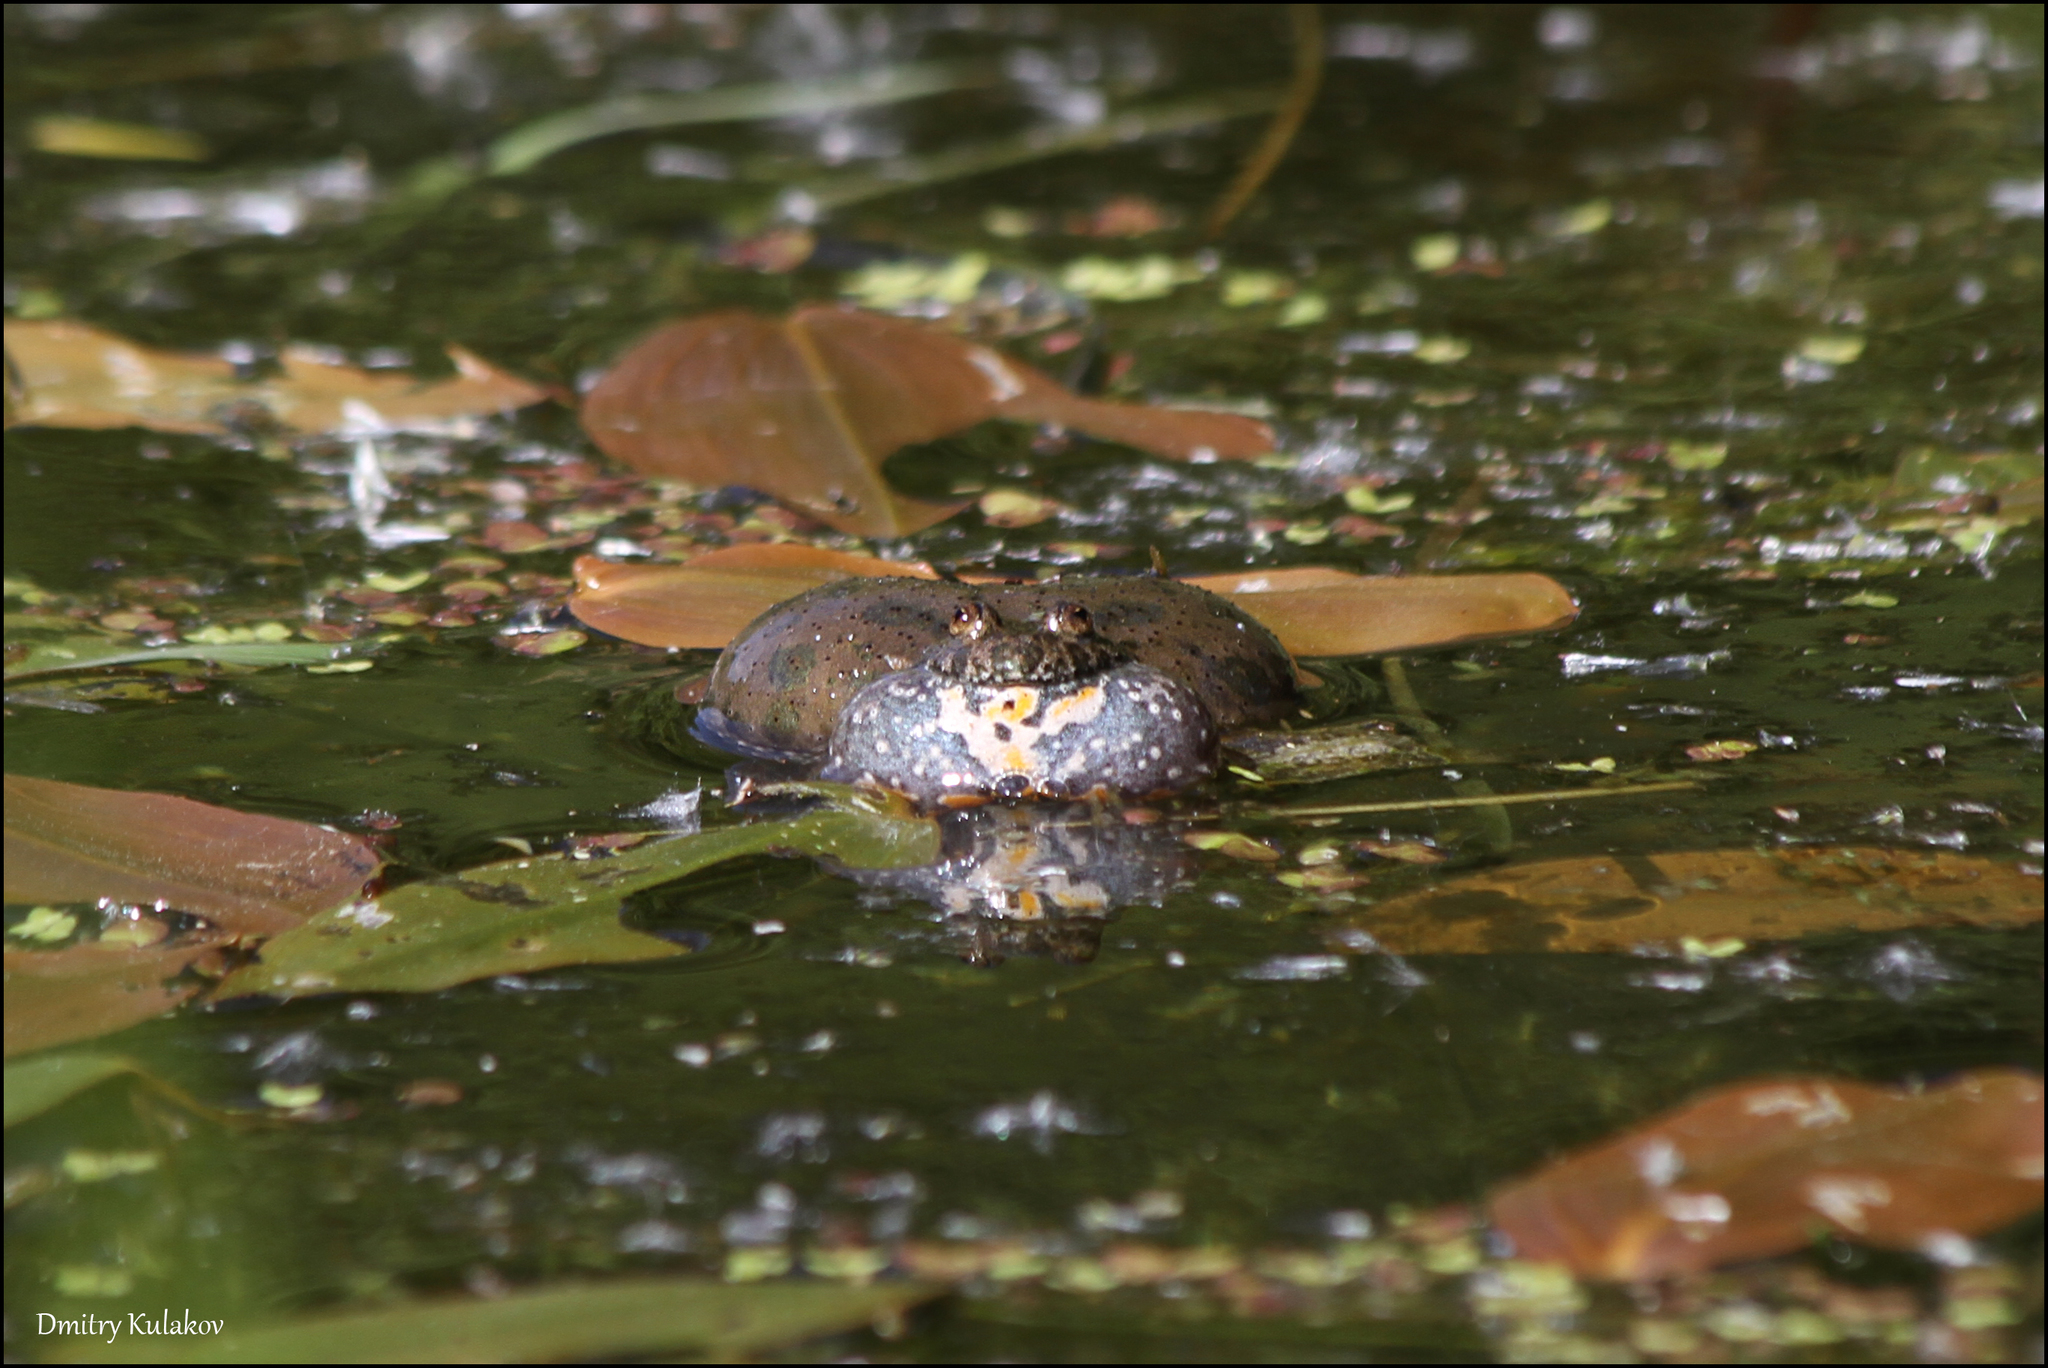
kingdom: Animalia
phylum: Chordata
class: Amphibia
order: Anura
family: Bombinatoridae
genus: Bombina
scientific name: Bombina bombina
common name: Fire-bellied toad
